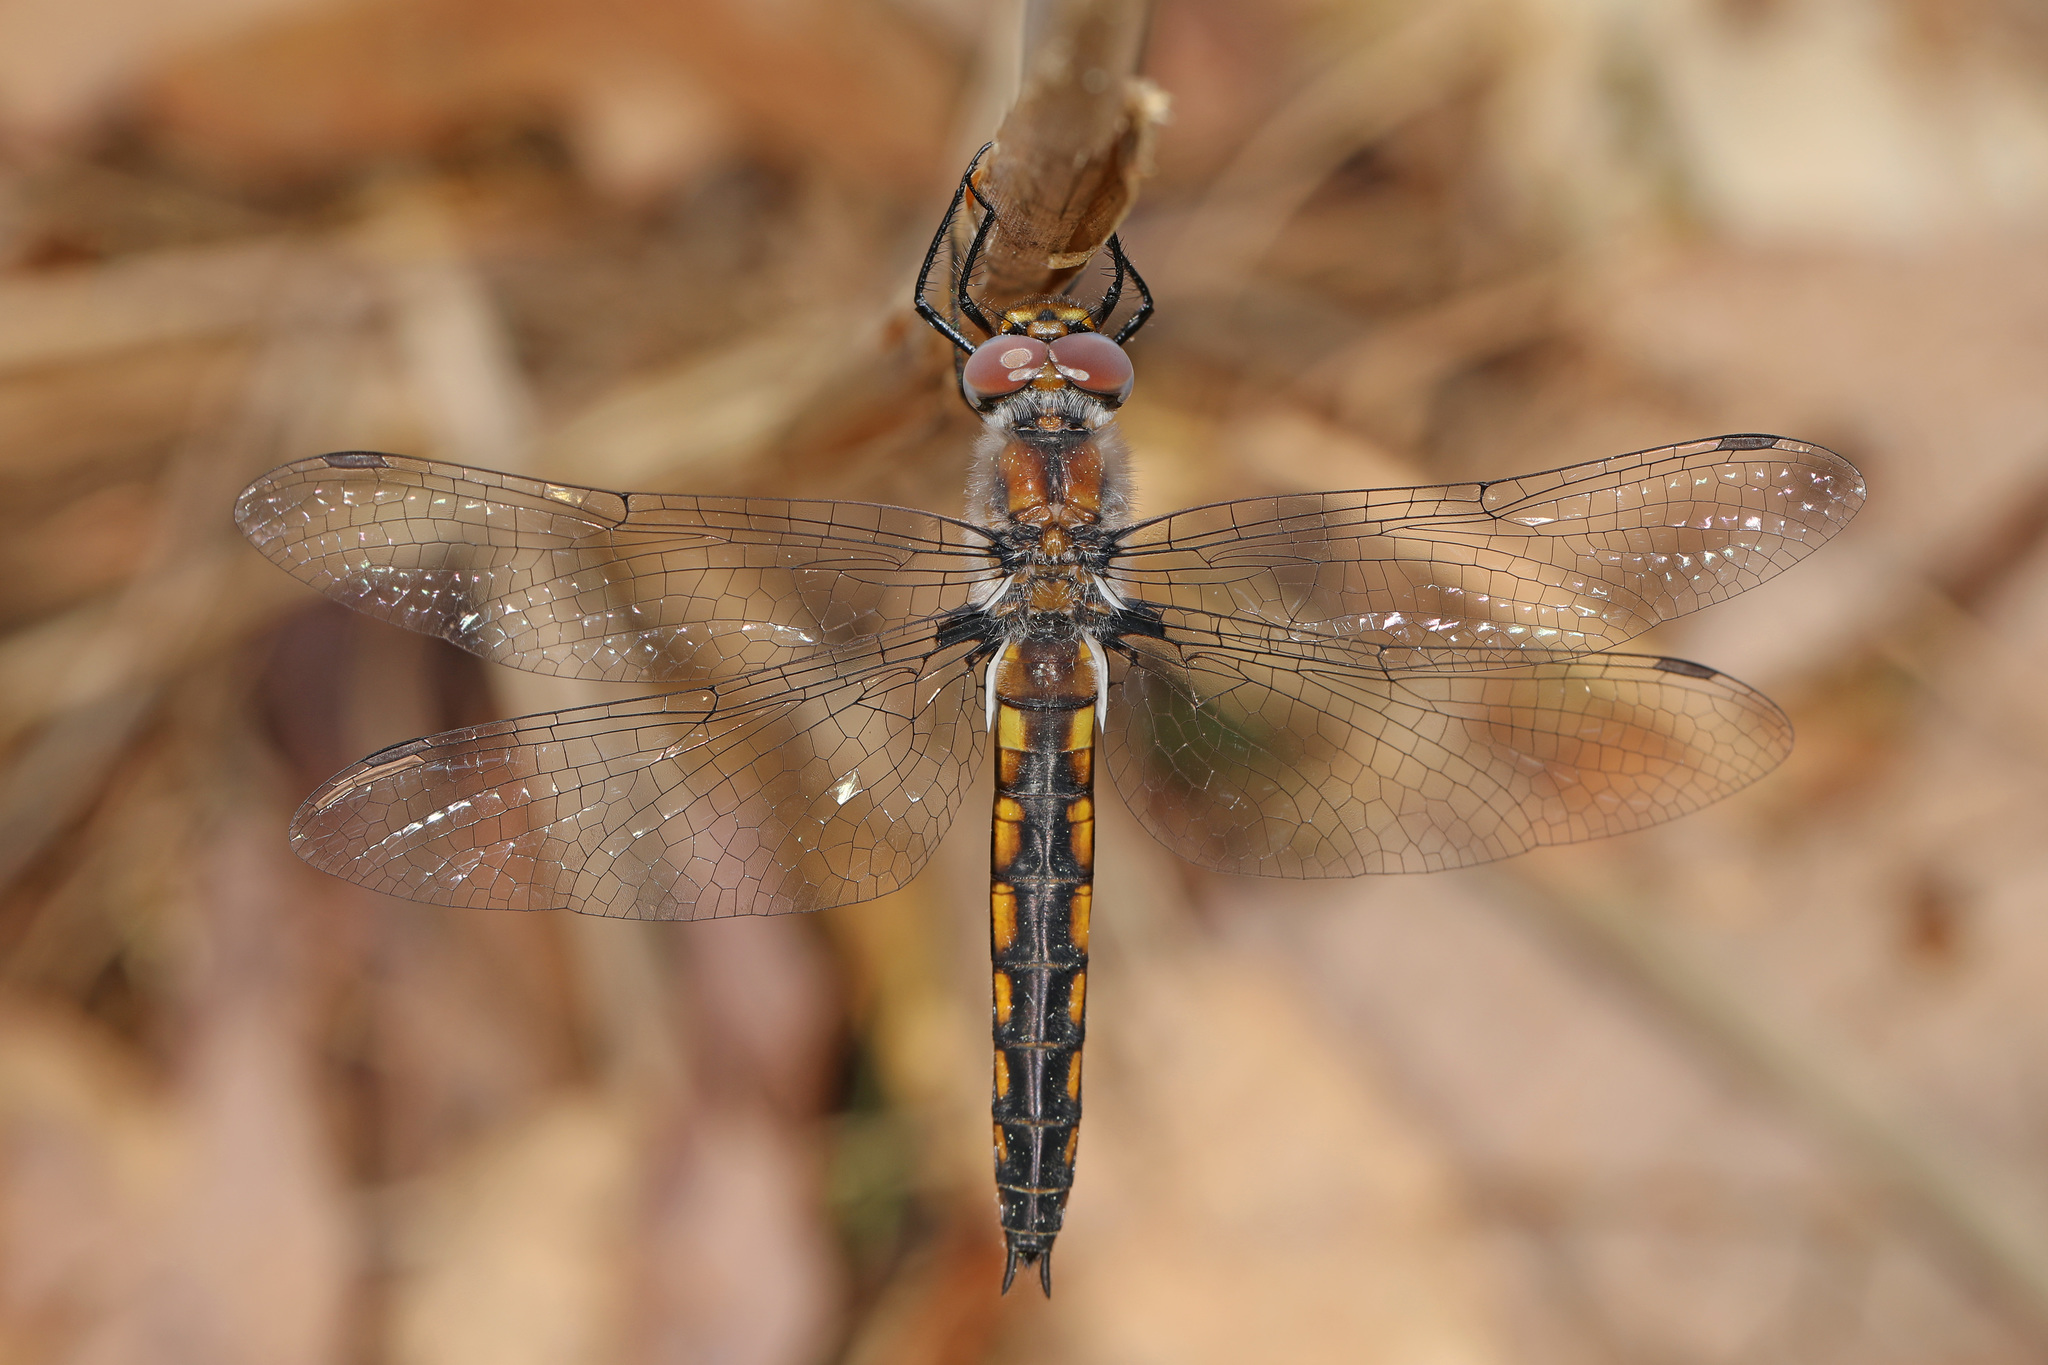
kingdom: Animalia
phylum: Arthropoda
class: Insecta
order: Odonata
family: Corduliidae
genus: Epitheca
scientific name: Epitheca cynosura
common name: Common baskettail
